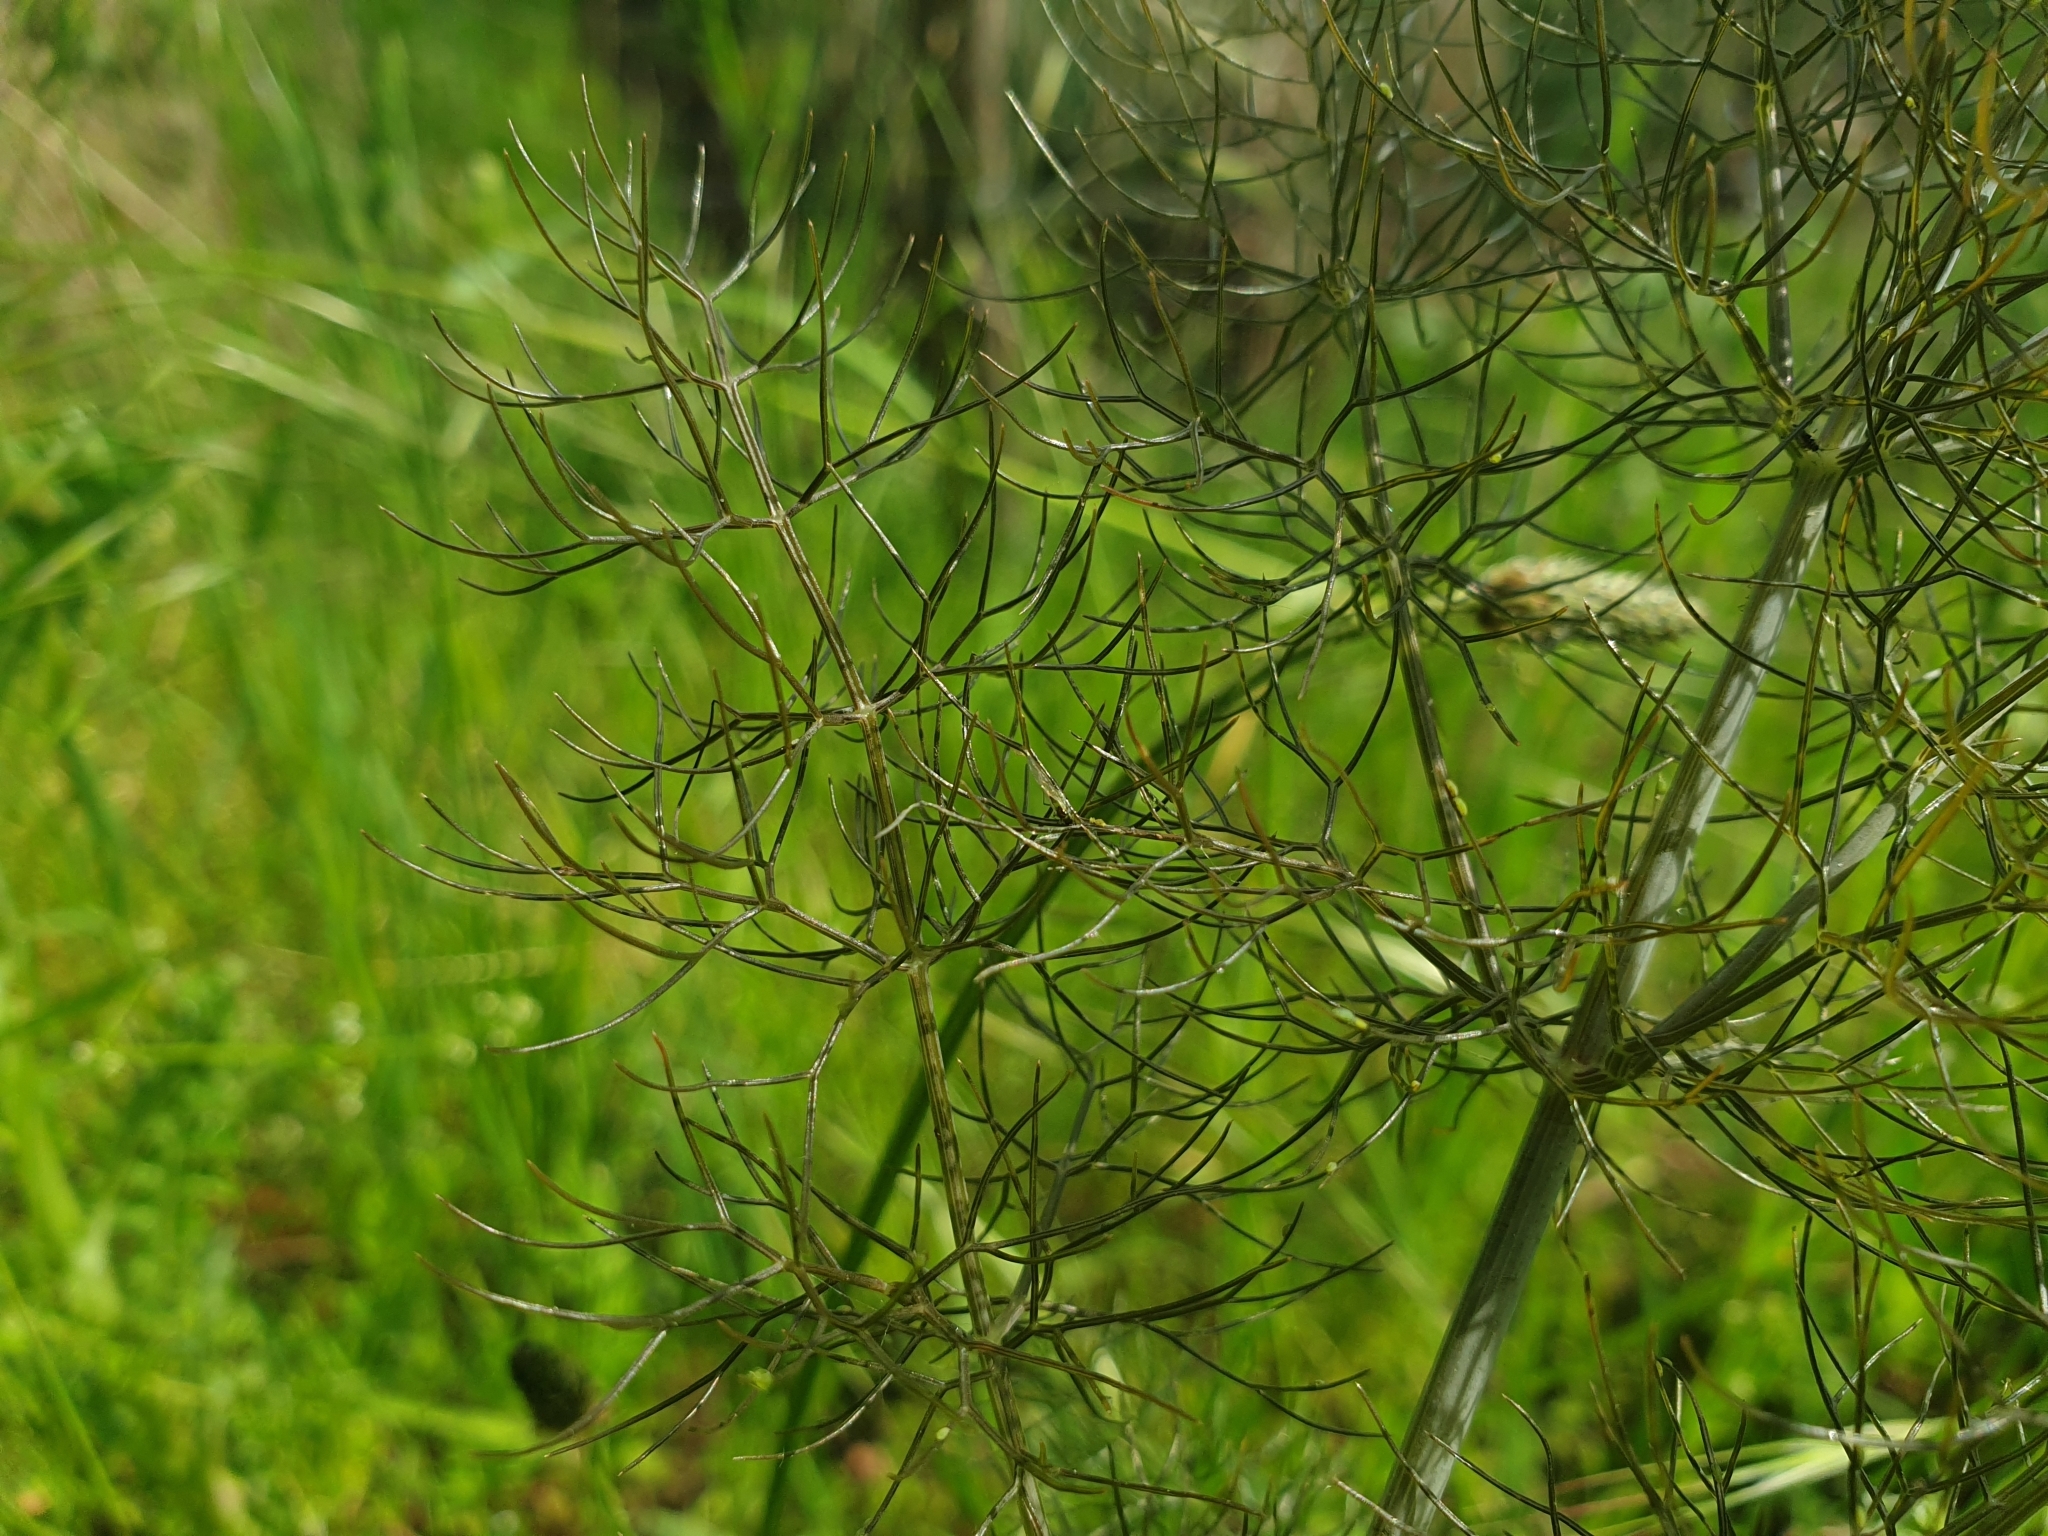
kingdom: Plantae
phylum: Tracheophyta
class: Magnoliopsida
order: Apiales
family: Apiaceae
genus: Foeniculum
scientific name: Foeniculum vulgare
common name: Fennel
